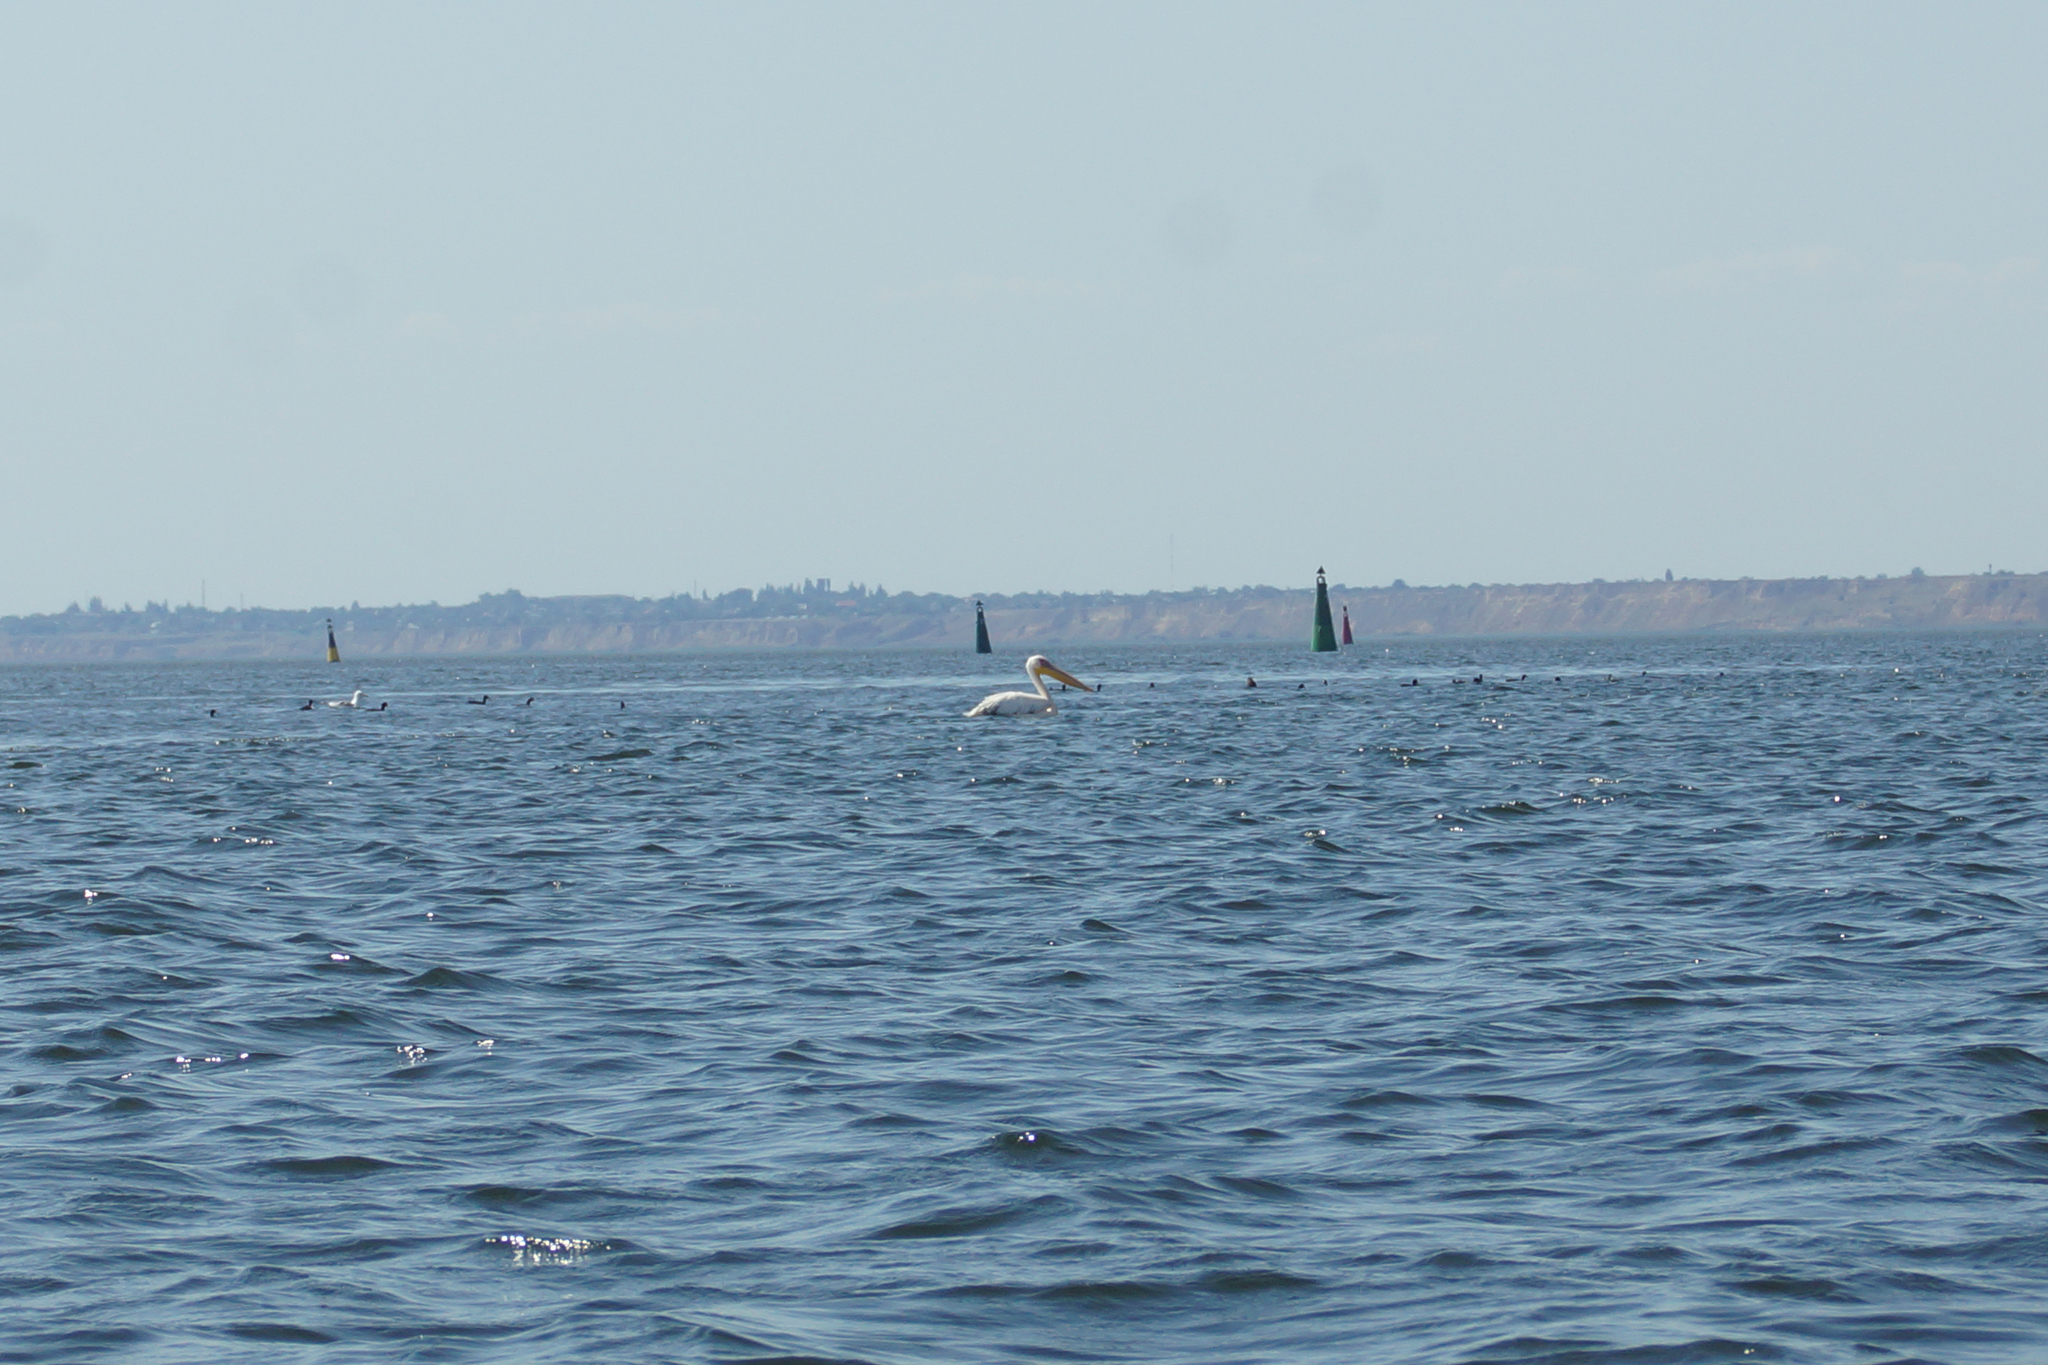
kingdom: Animalia
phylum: Chordata
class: Aves
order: Pelecaniformes
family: Pelecanidae
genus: Pelecanus
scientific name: Pelecanus onocrotalus
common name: Great white pelican
